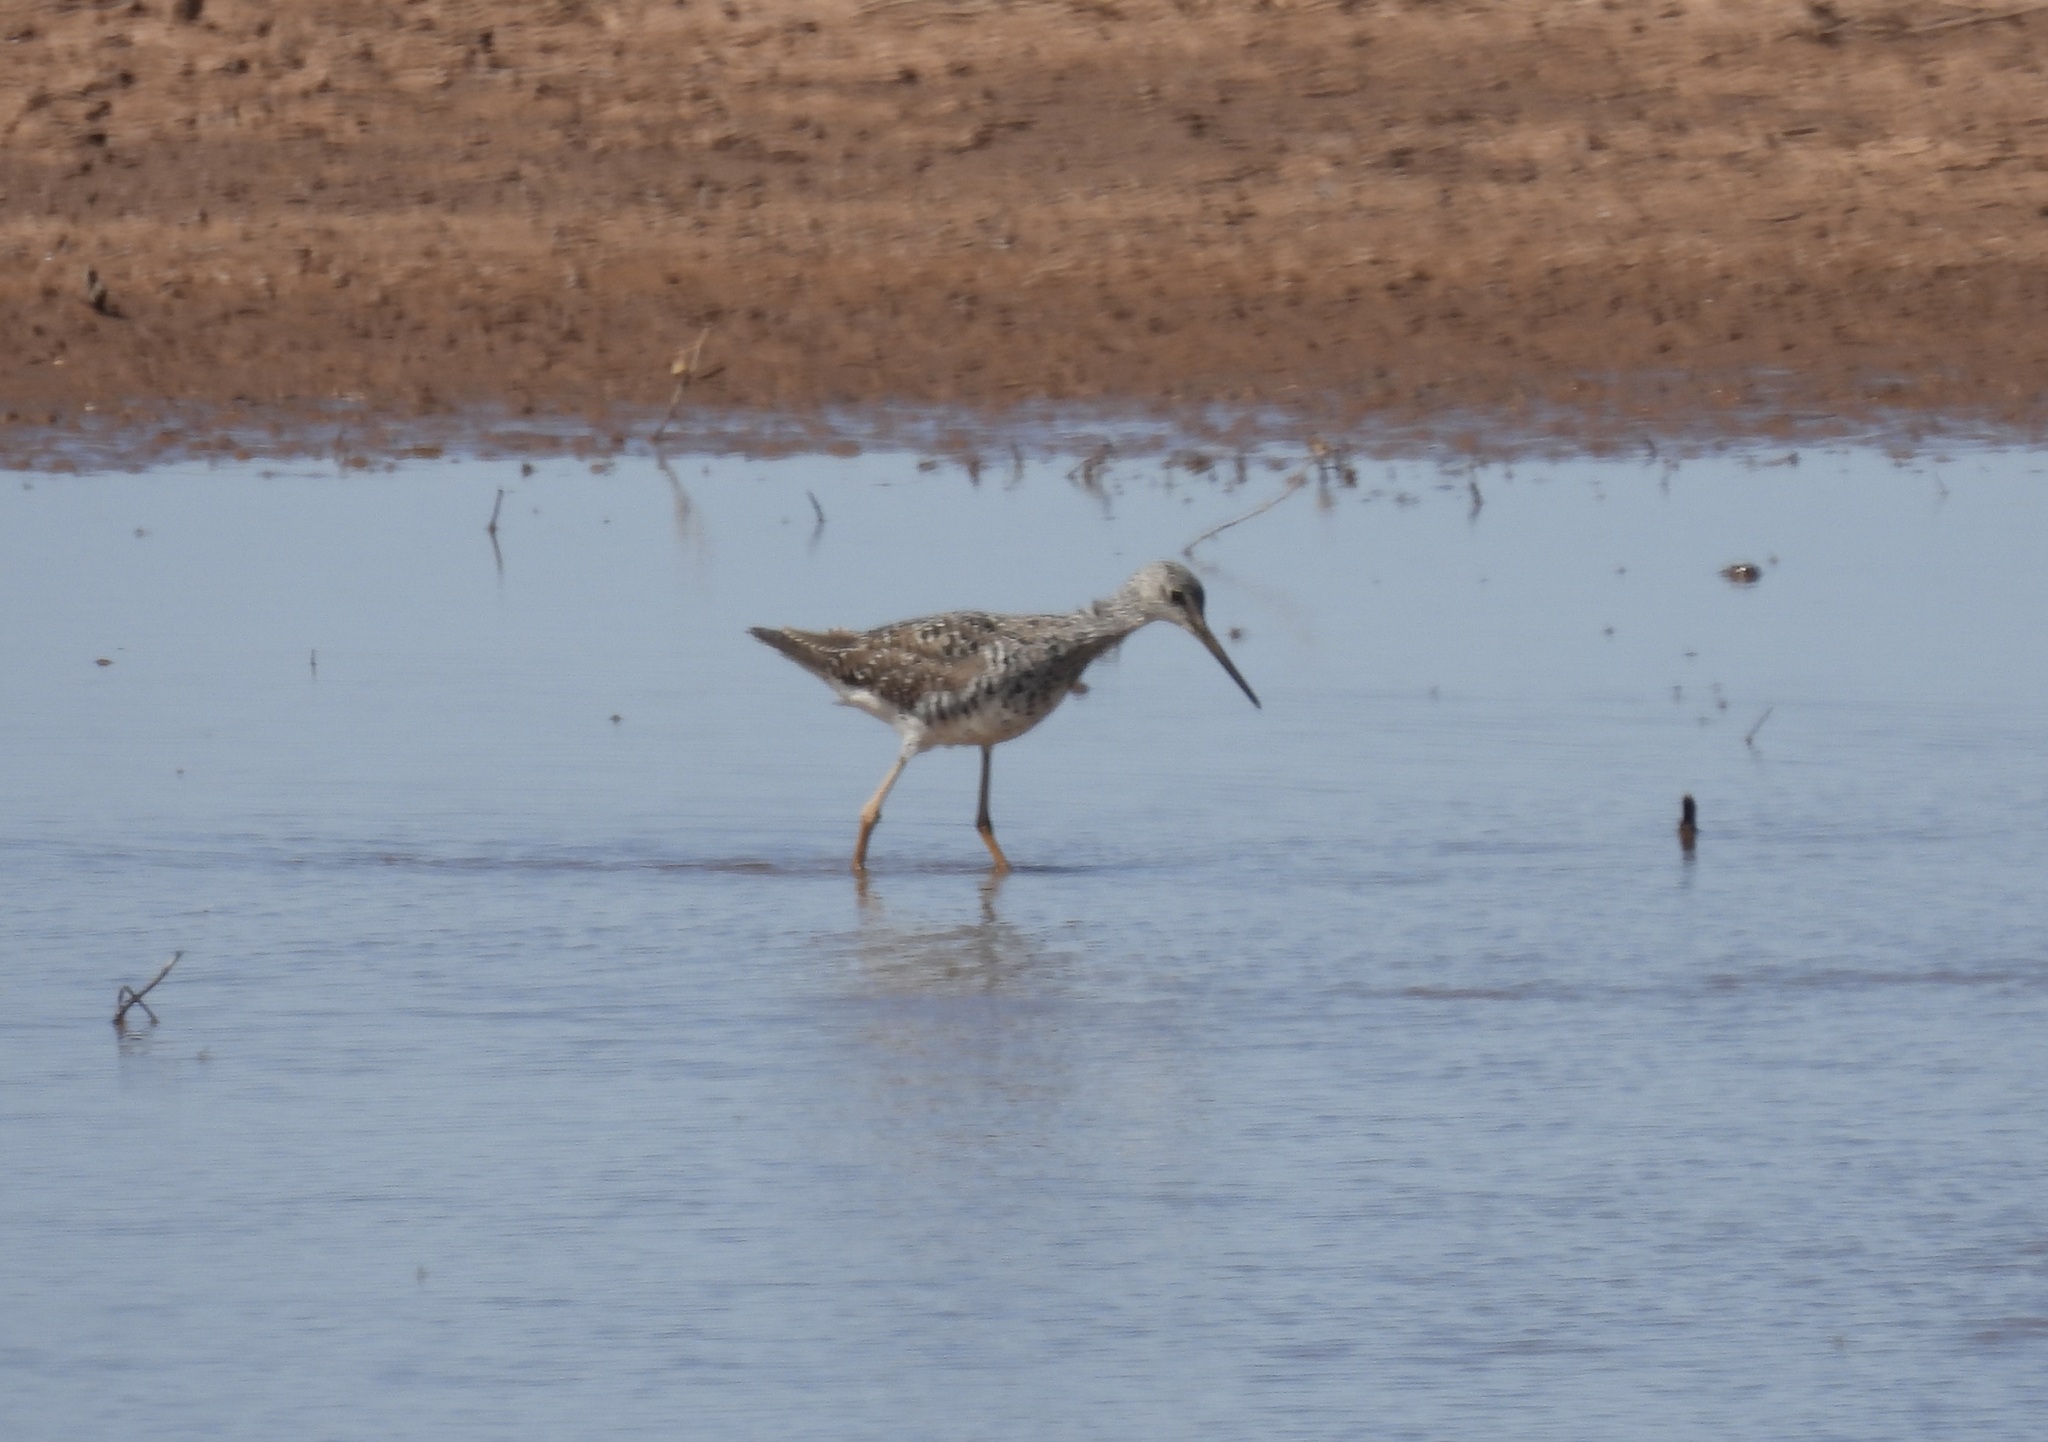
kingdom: Animalia
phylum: Chordata
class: Aves
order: Charadriiformes
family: Scolopacidae
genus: Tringa
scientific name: Tringa melanoleuca
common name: Greater yellowlegs
